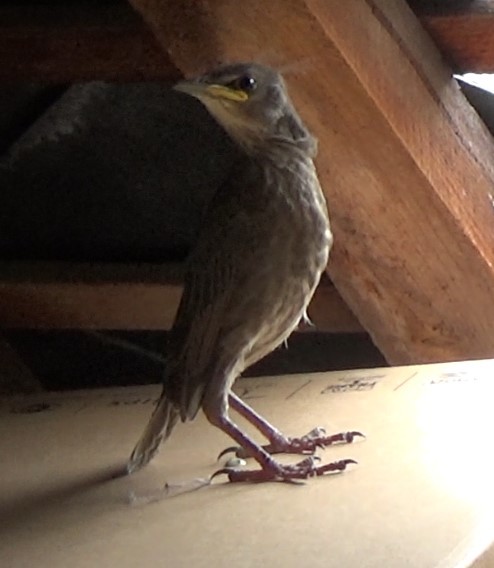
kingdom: Animalia
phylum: Chordata
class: Aves
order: Passeriformes
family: Sturnidae
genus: Sturnus
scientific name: Sturnus vulgaris
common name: Common starling
